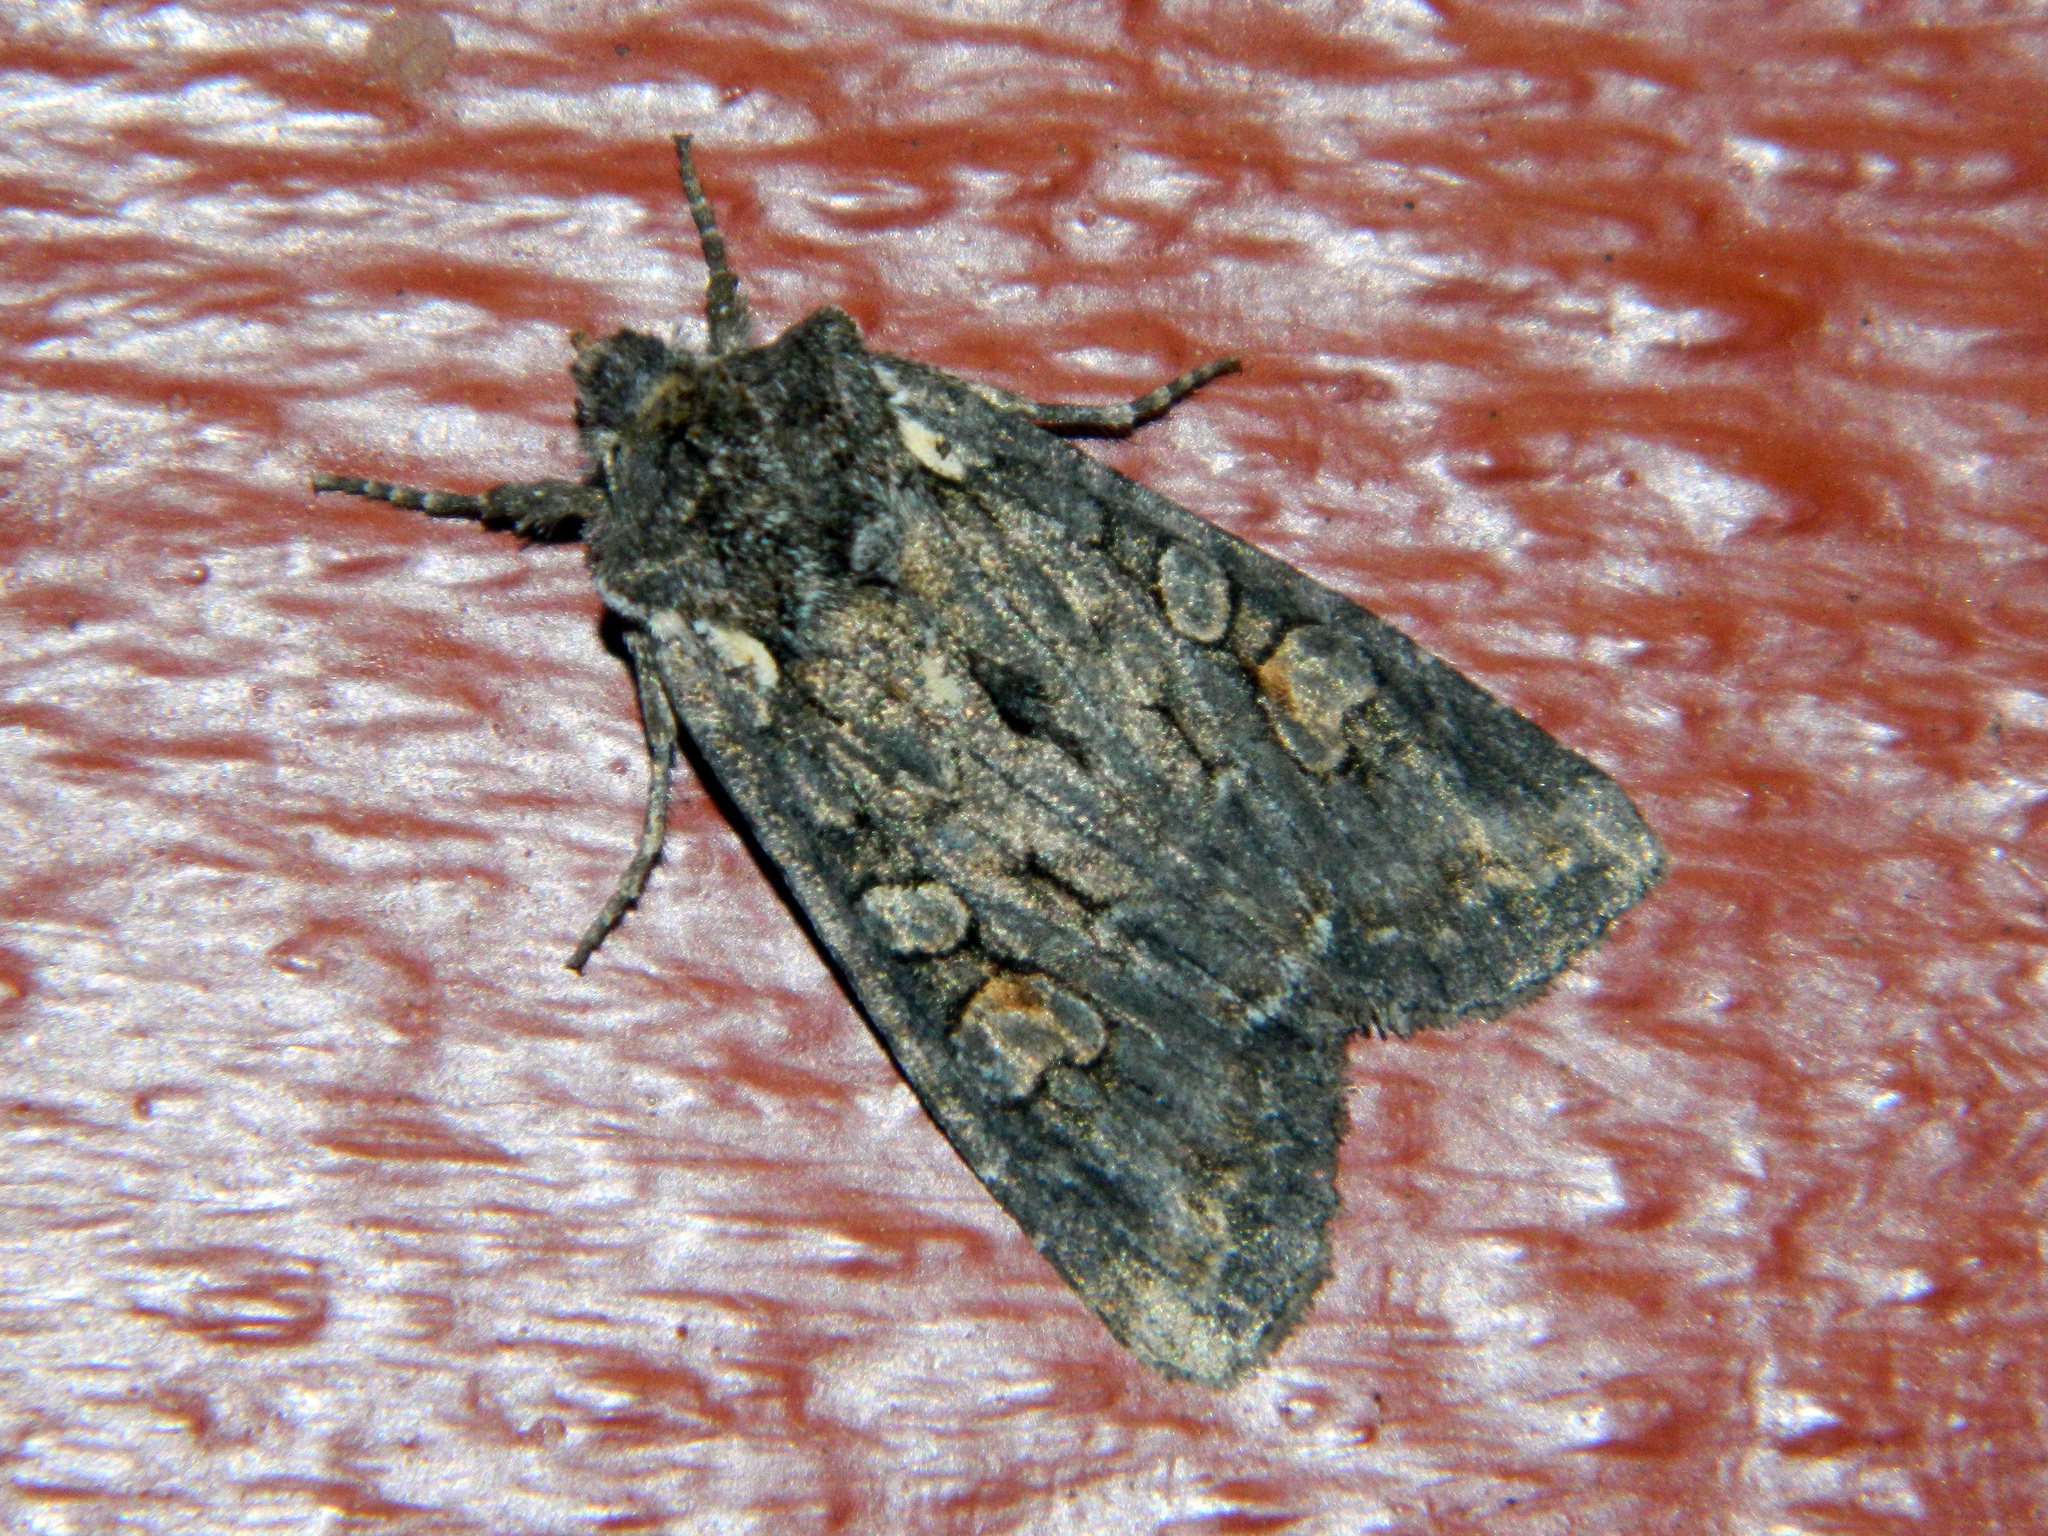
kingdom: Animalia
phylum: Arthropoda
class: Insecta
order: Lepidoptera
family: Noctuidae
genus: Lithophane
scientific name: Lithophane pexata
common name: Plush-naped pinion moth
